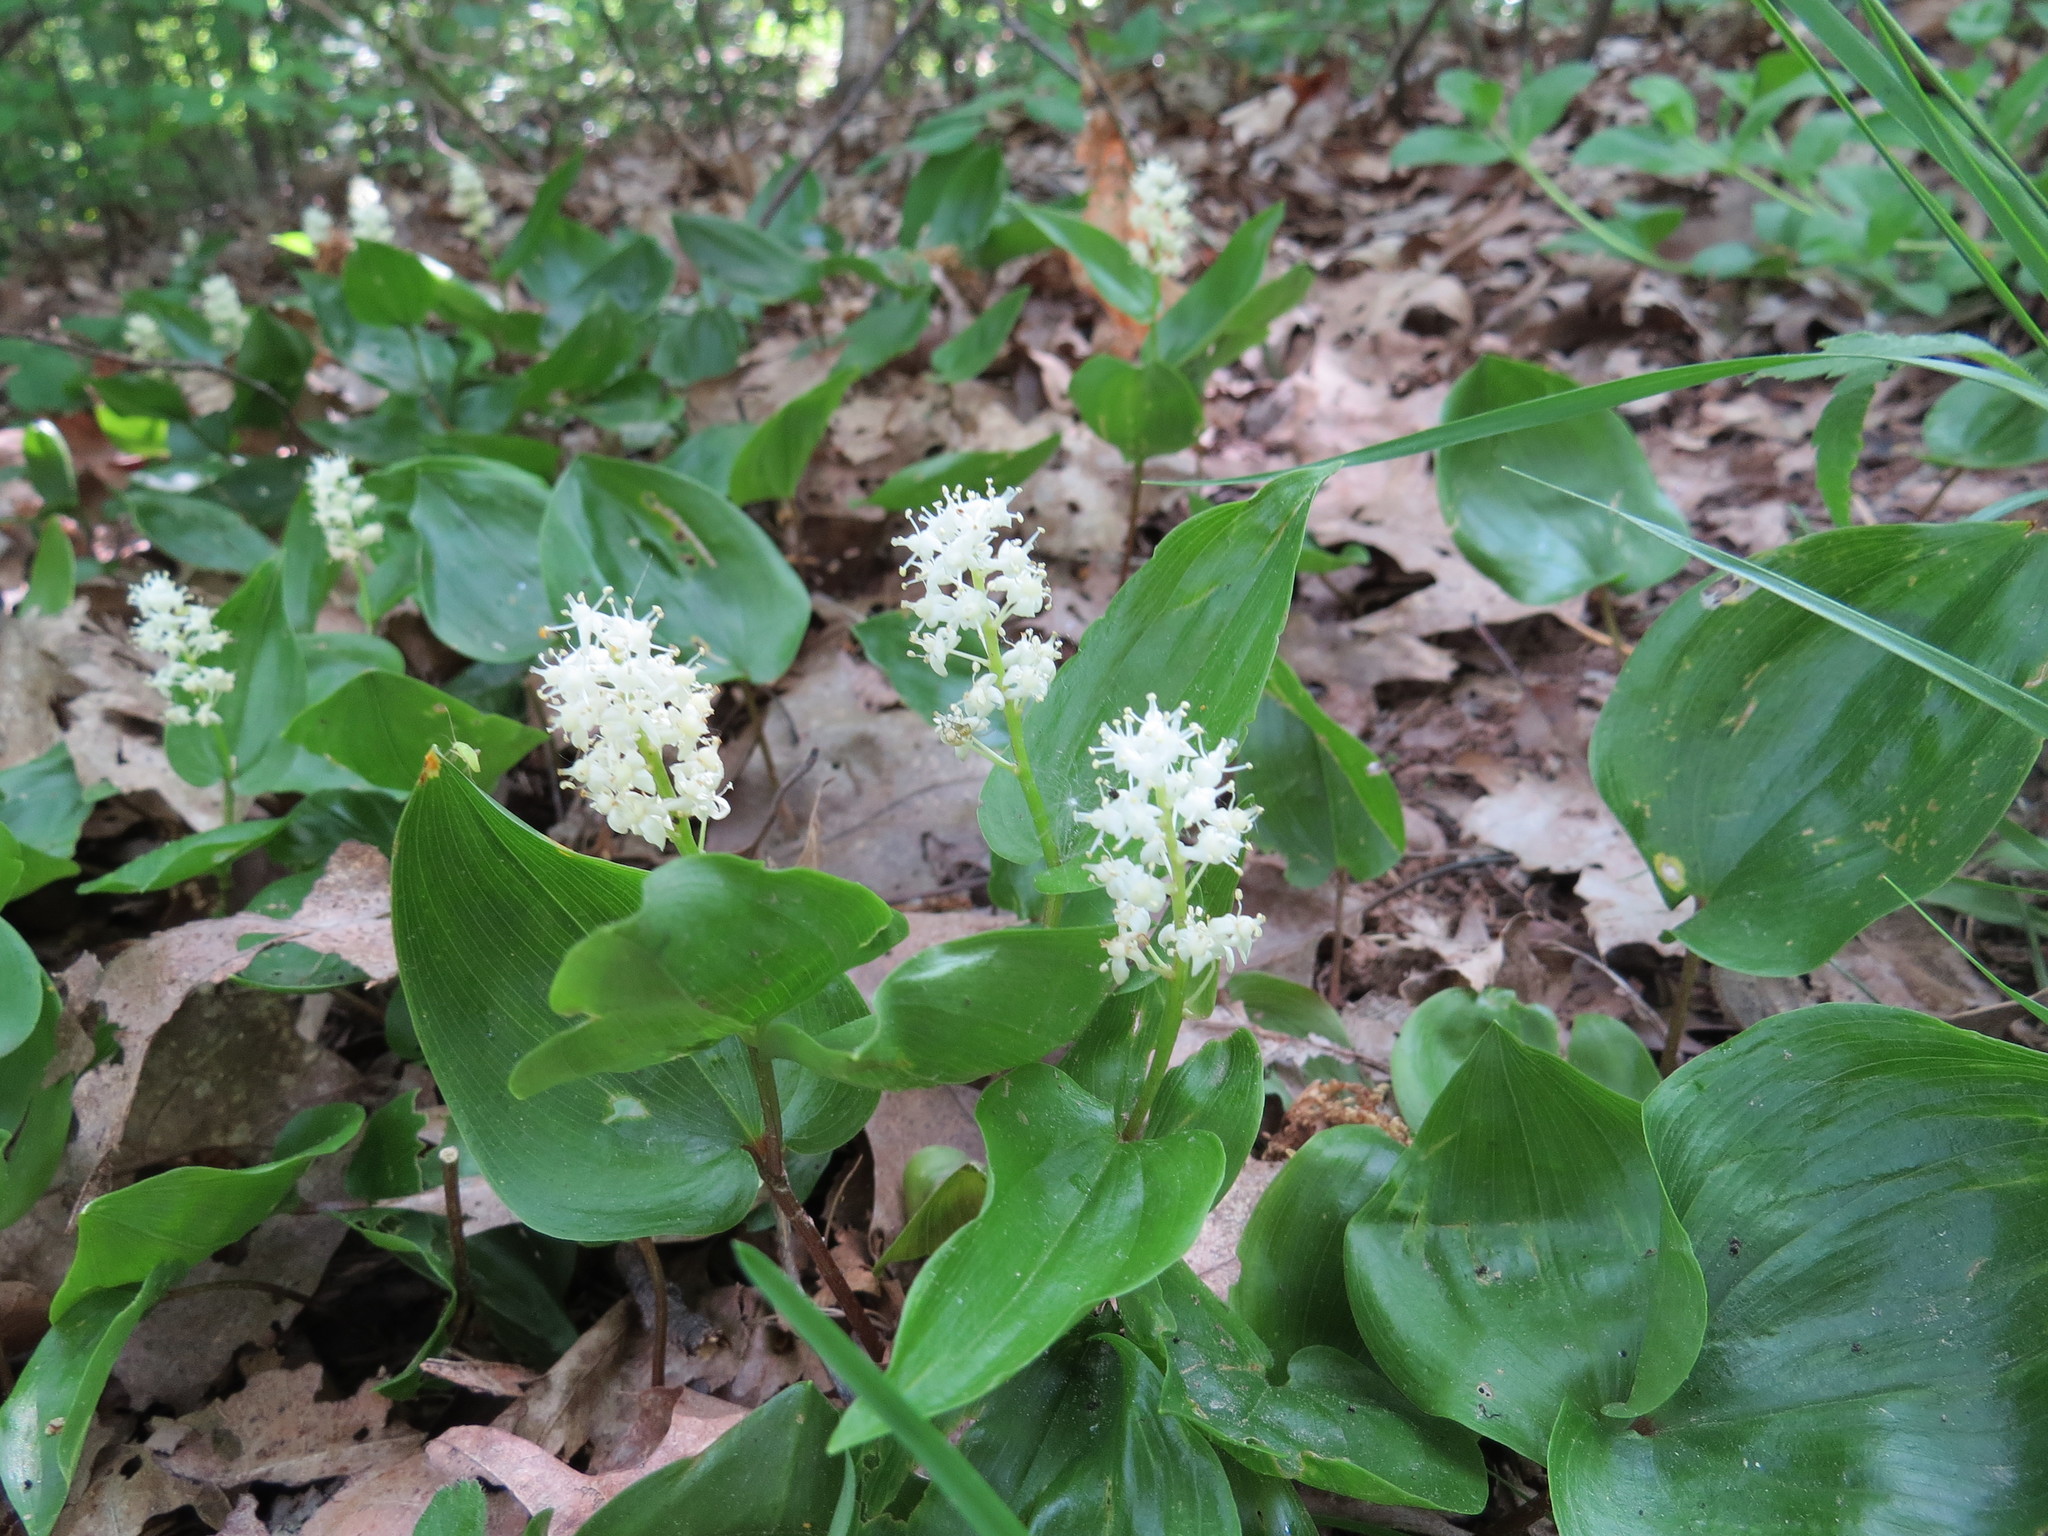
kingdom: Plantae
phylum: Tracheophyta
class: Liliopsida
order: Asparagales
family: Asparagaceae
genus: Maianthemum
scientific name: Maianthemum canadense
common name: False lily-of-the-valley
